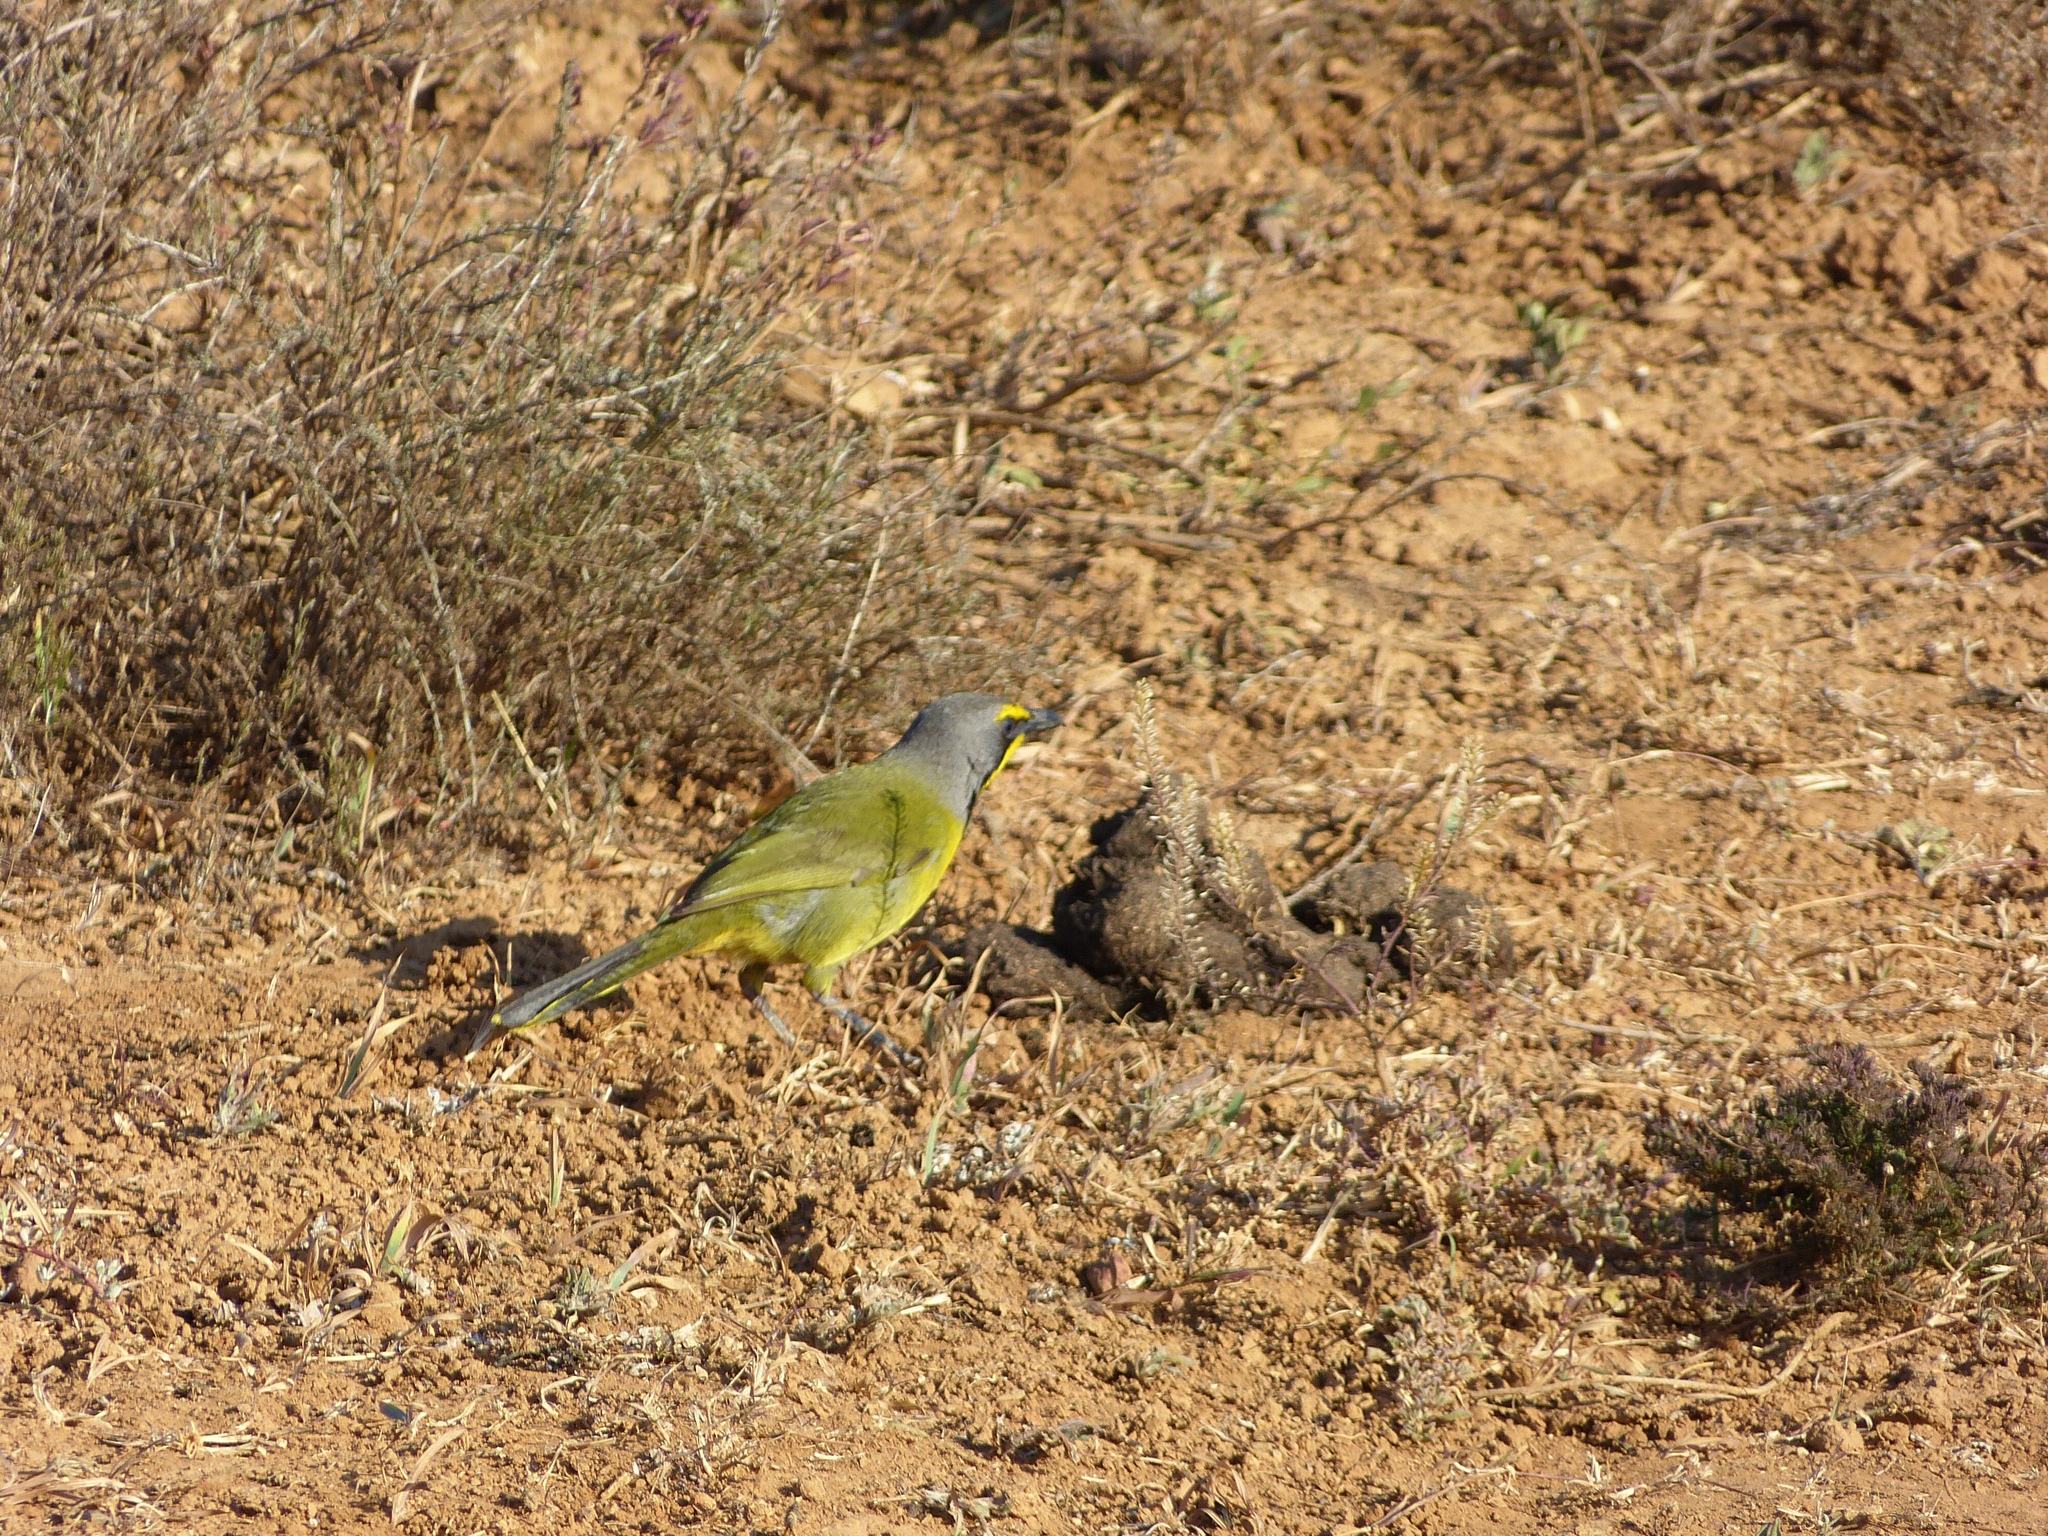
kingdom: Animalia
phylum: Chordata
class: Aves
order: Passeriformes
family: Malaconotidae
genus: Telophorus
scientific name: Telophorus zeylonus
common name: Bokmakierie
